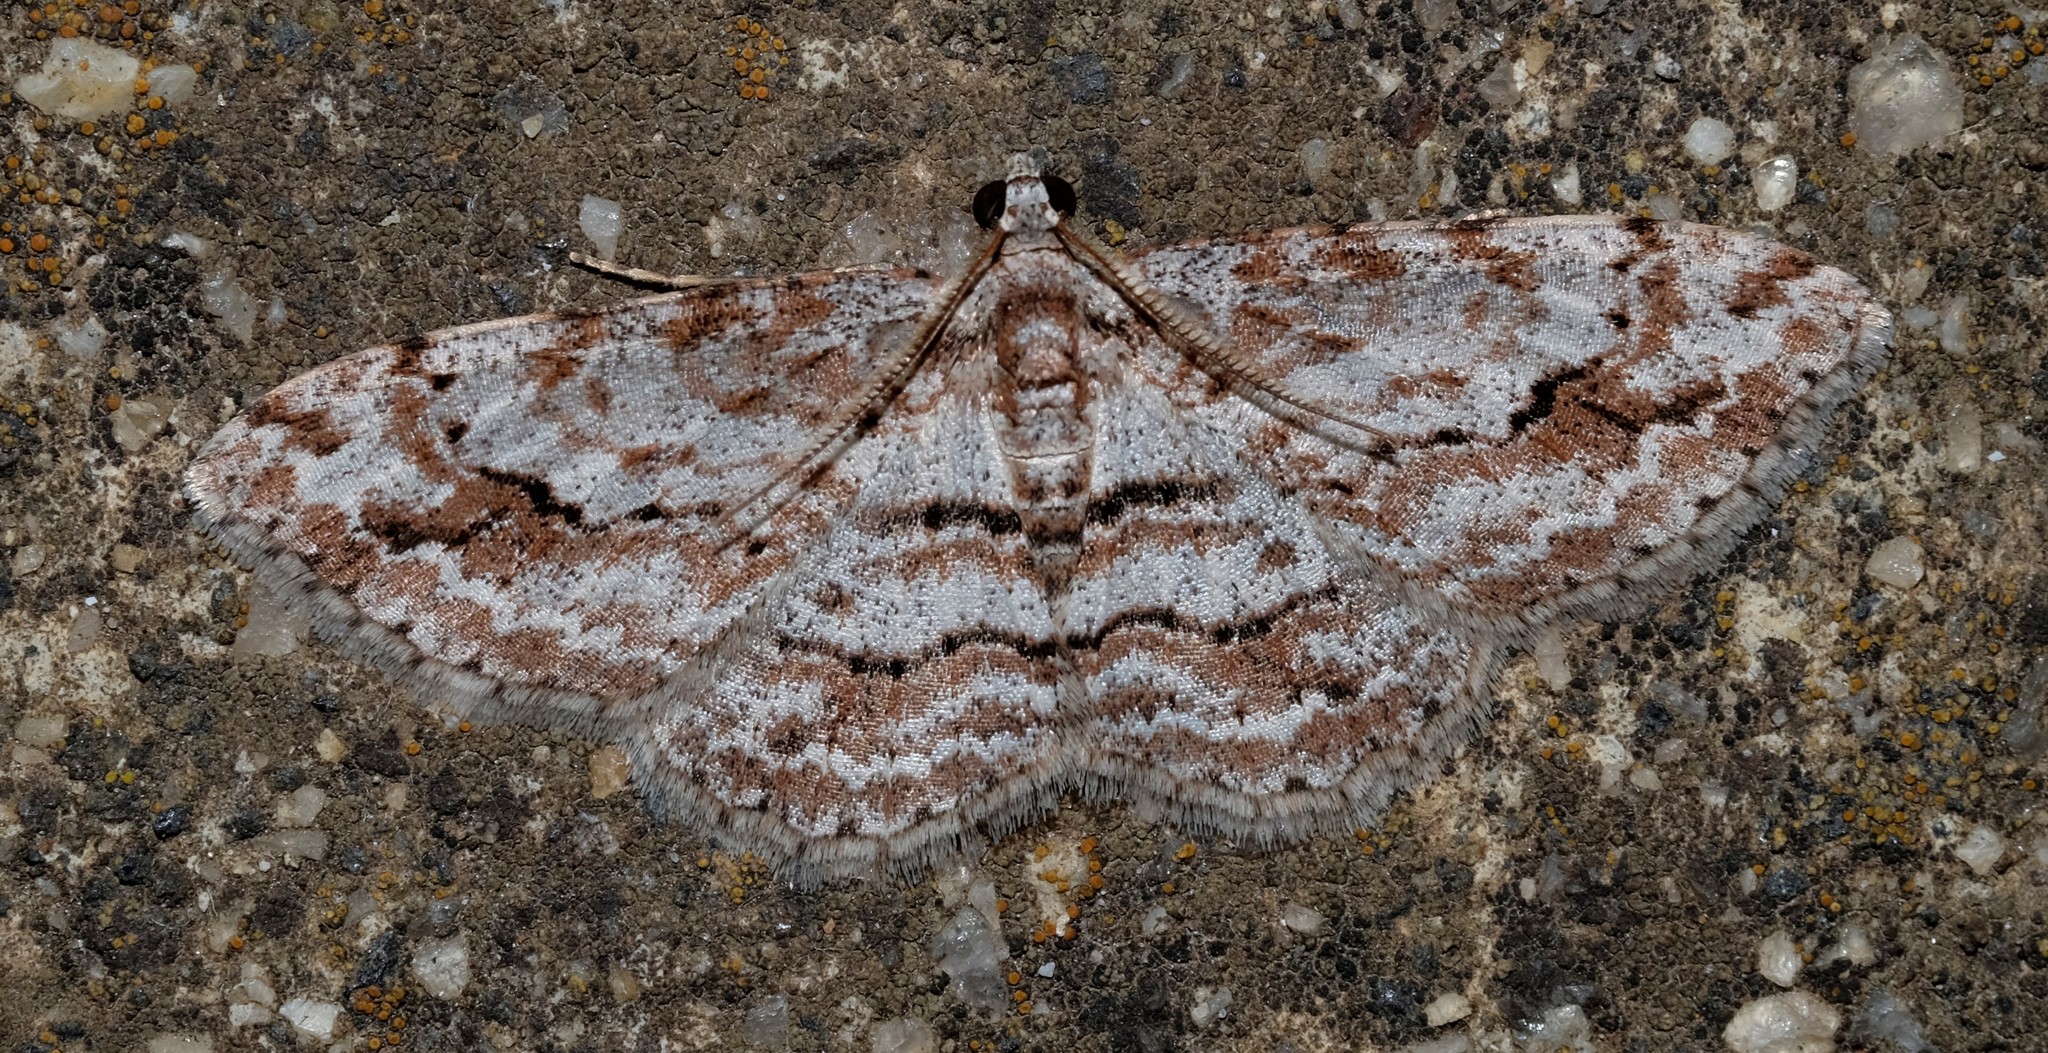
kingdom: Animalia
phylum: Arthropoda
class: Insecta
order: Lepidoptera
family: Geometridae
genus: Didymoctenia
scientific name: Didymoctenia exsuperata
